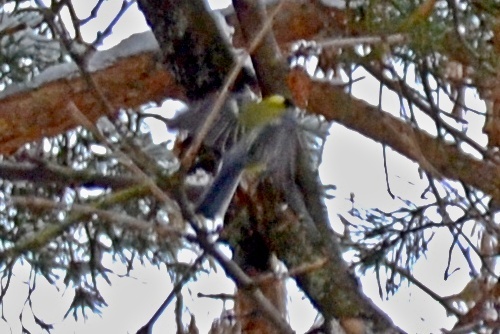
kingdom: Animalia
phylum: Chordata
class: Aves
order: Passeriformes
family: Paridae
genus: Parus
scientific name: Parus major
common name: Great tit
